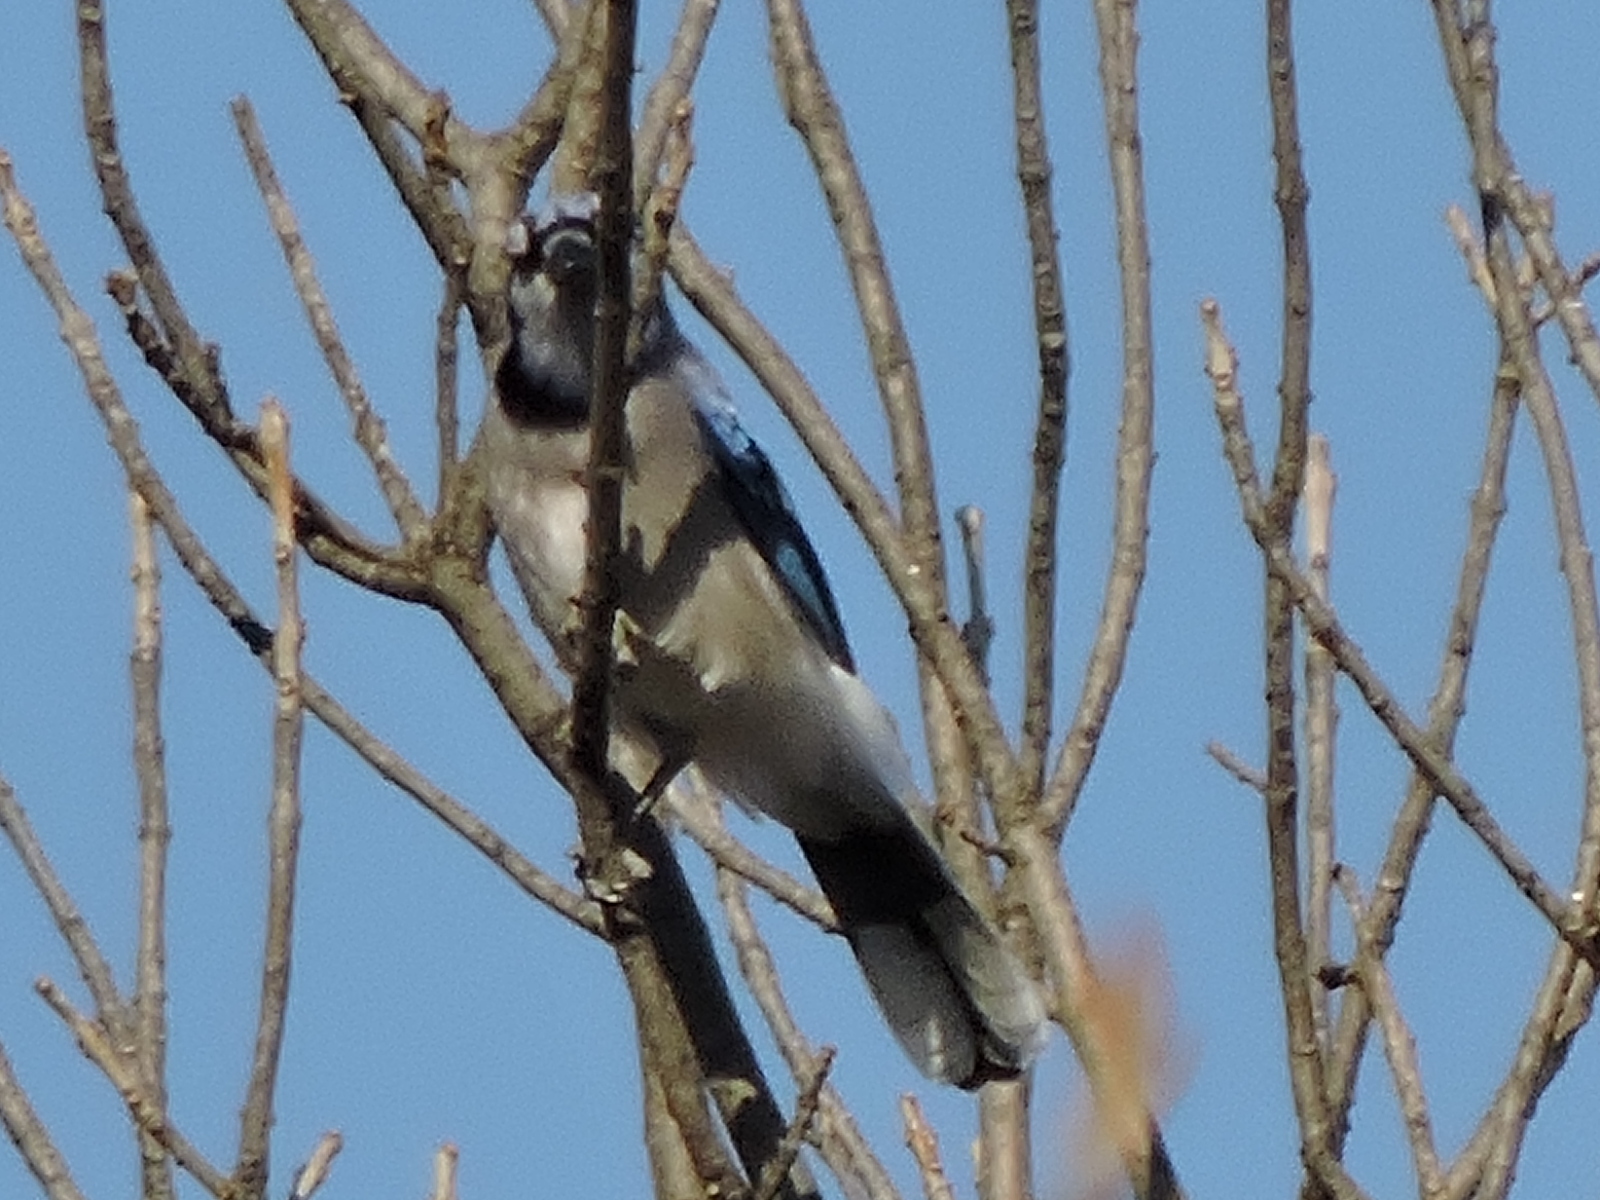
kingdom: Animalia
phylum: Chordata
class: Aves
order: Passeriformes
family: Corvidae
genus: Cyanocitta
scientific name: Cyanocitta cristata
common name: Blue jay
